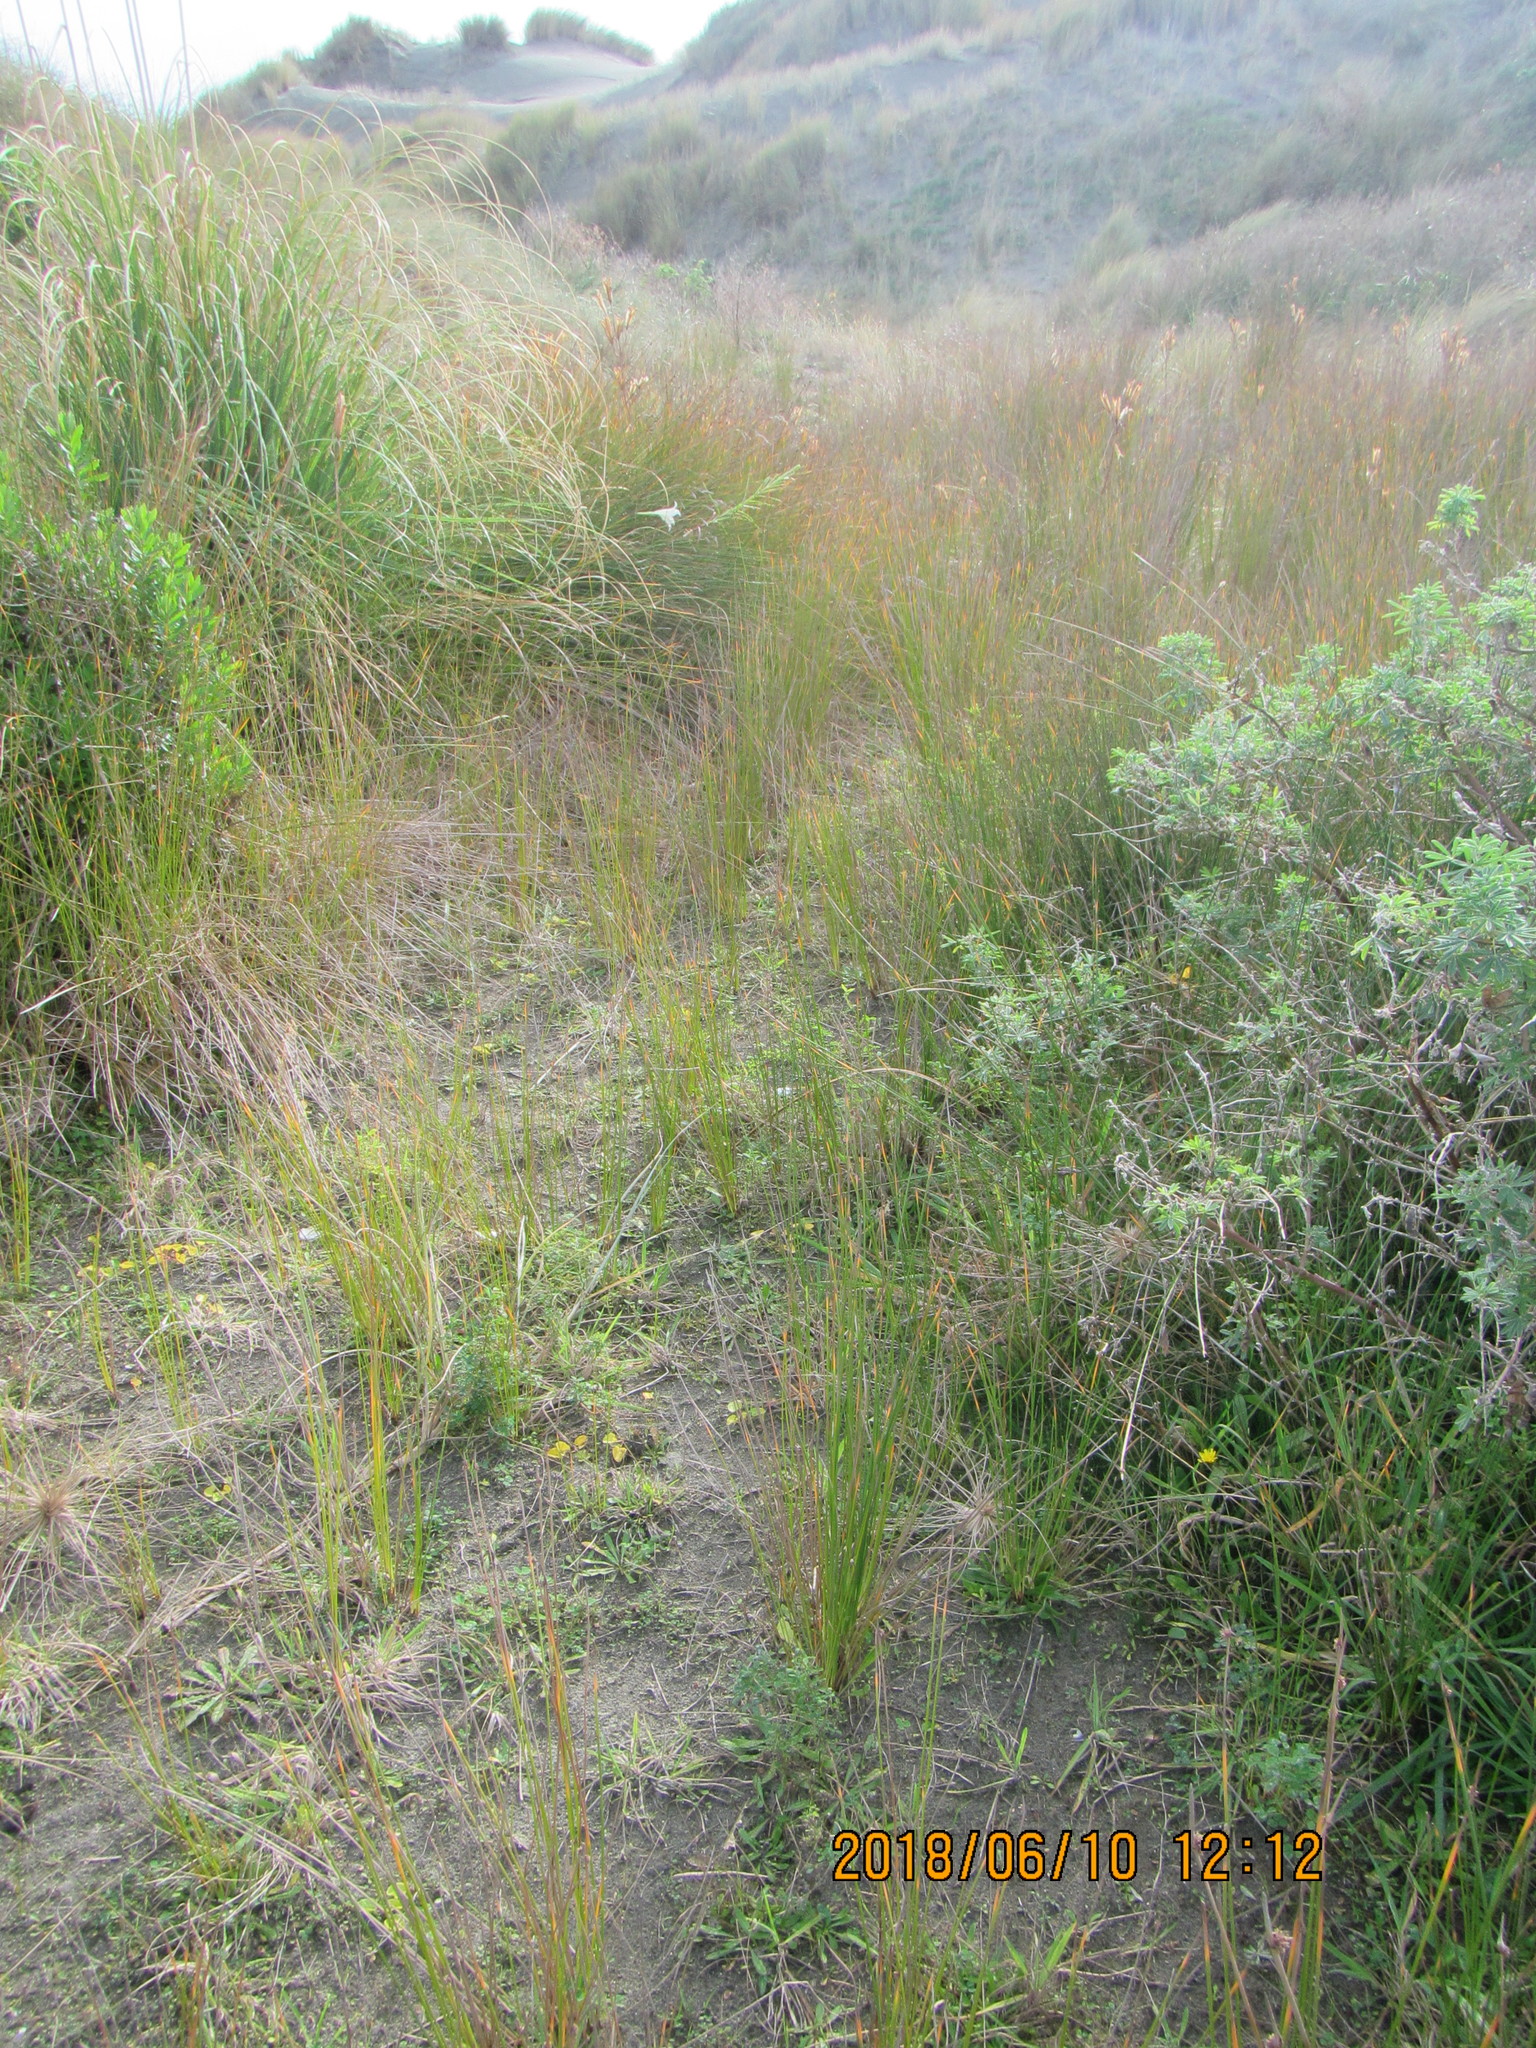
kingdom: Plantae
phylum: Tracheophyta
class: Magnoliopsida
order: Fabales
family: Fabaceae
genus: Melilotus
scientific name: Melilotus indicus
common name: Small melilot
